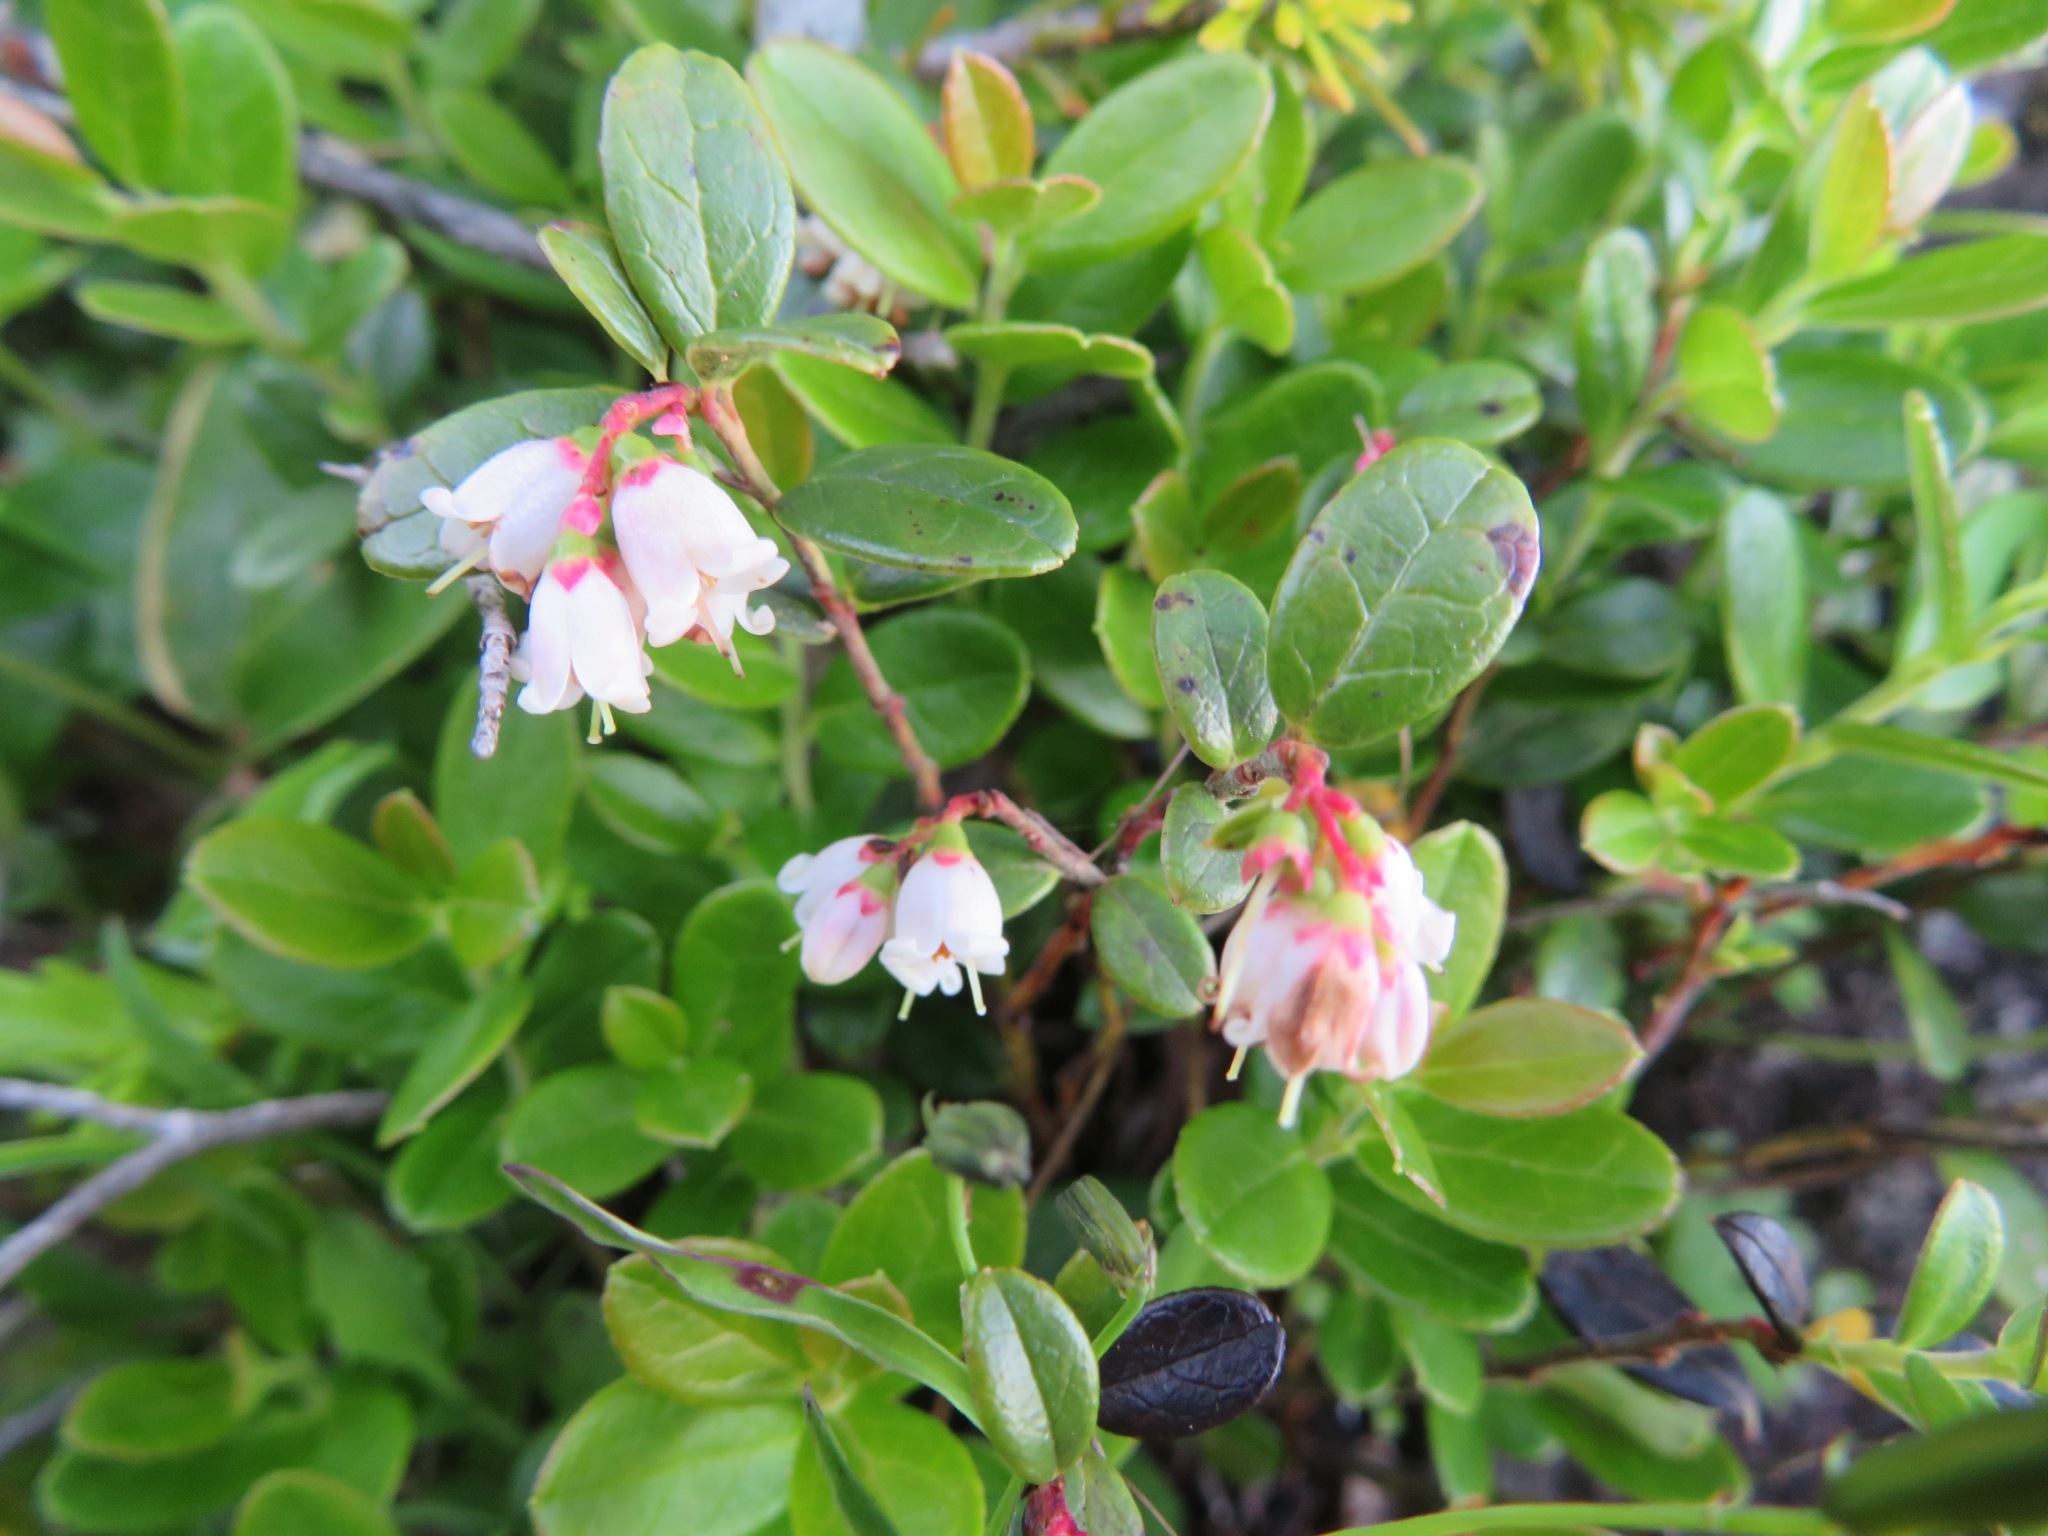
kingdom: Plantae
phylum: Tracheophyta
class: Magnoliopsida
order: Ericales
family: Ericaceae
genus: Vaccinium
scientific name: Vaccinium vitis-idaea
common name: Cowberry
